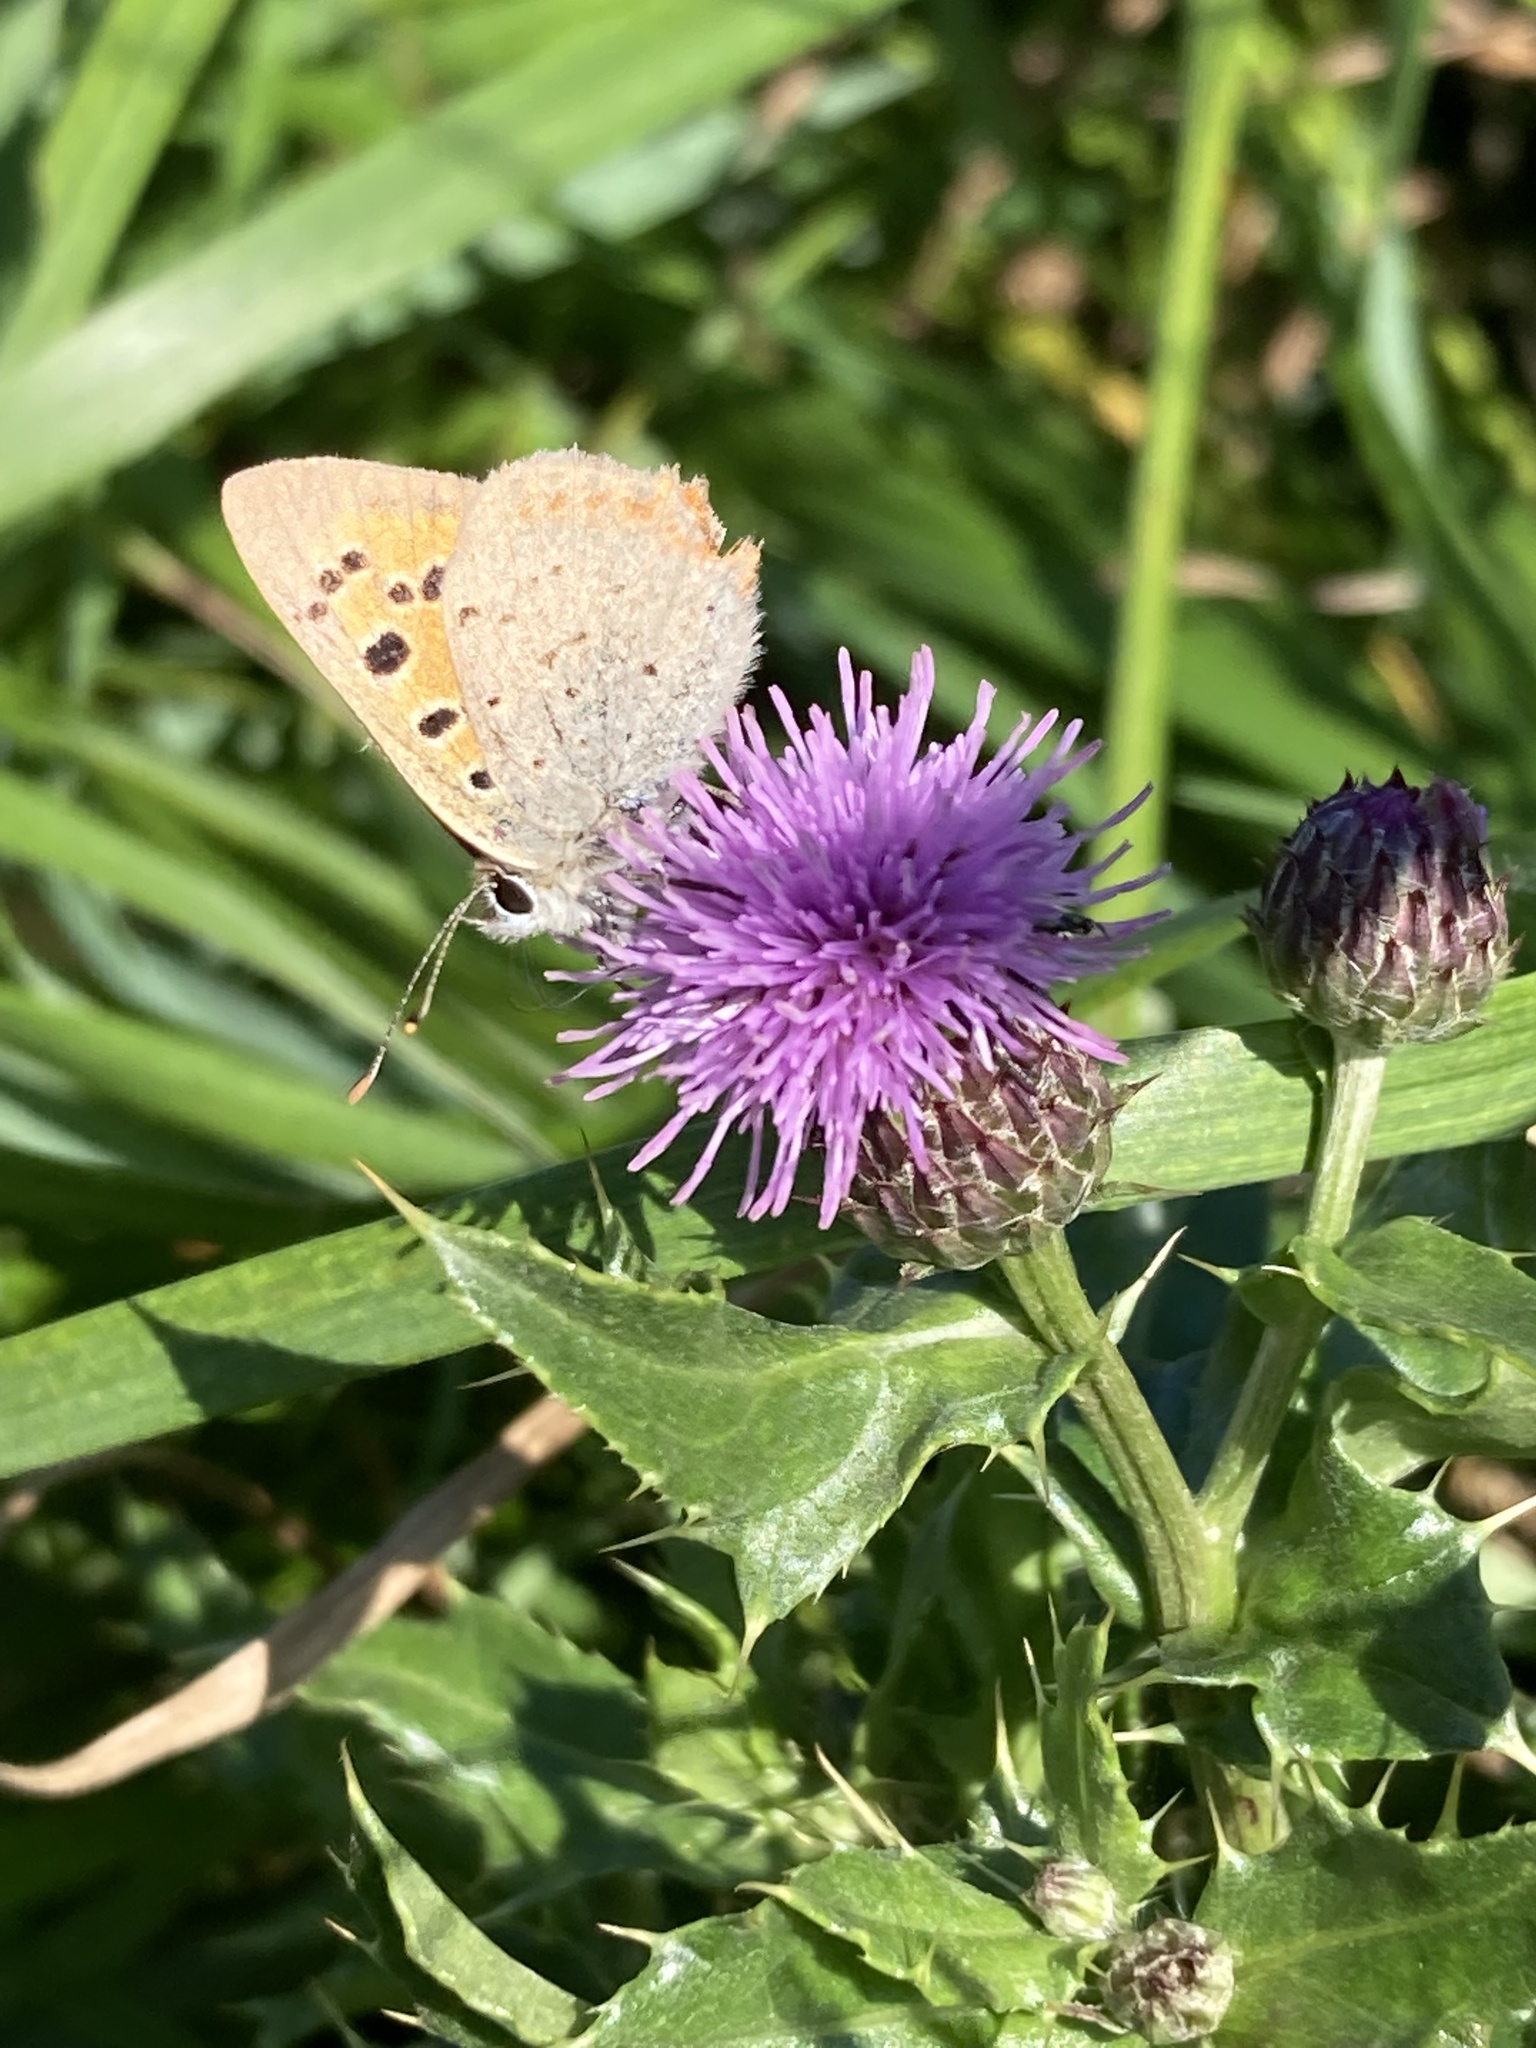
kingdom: Animalia
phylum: Arthropoda
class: Insecta
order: Lepidoptera
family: Lycaenidae
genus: Lycaena
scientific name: Lycaena phlaeas
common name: Small copper
